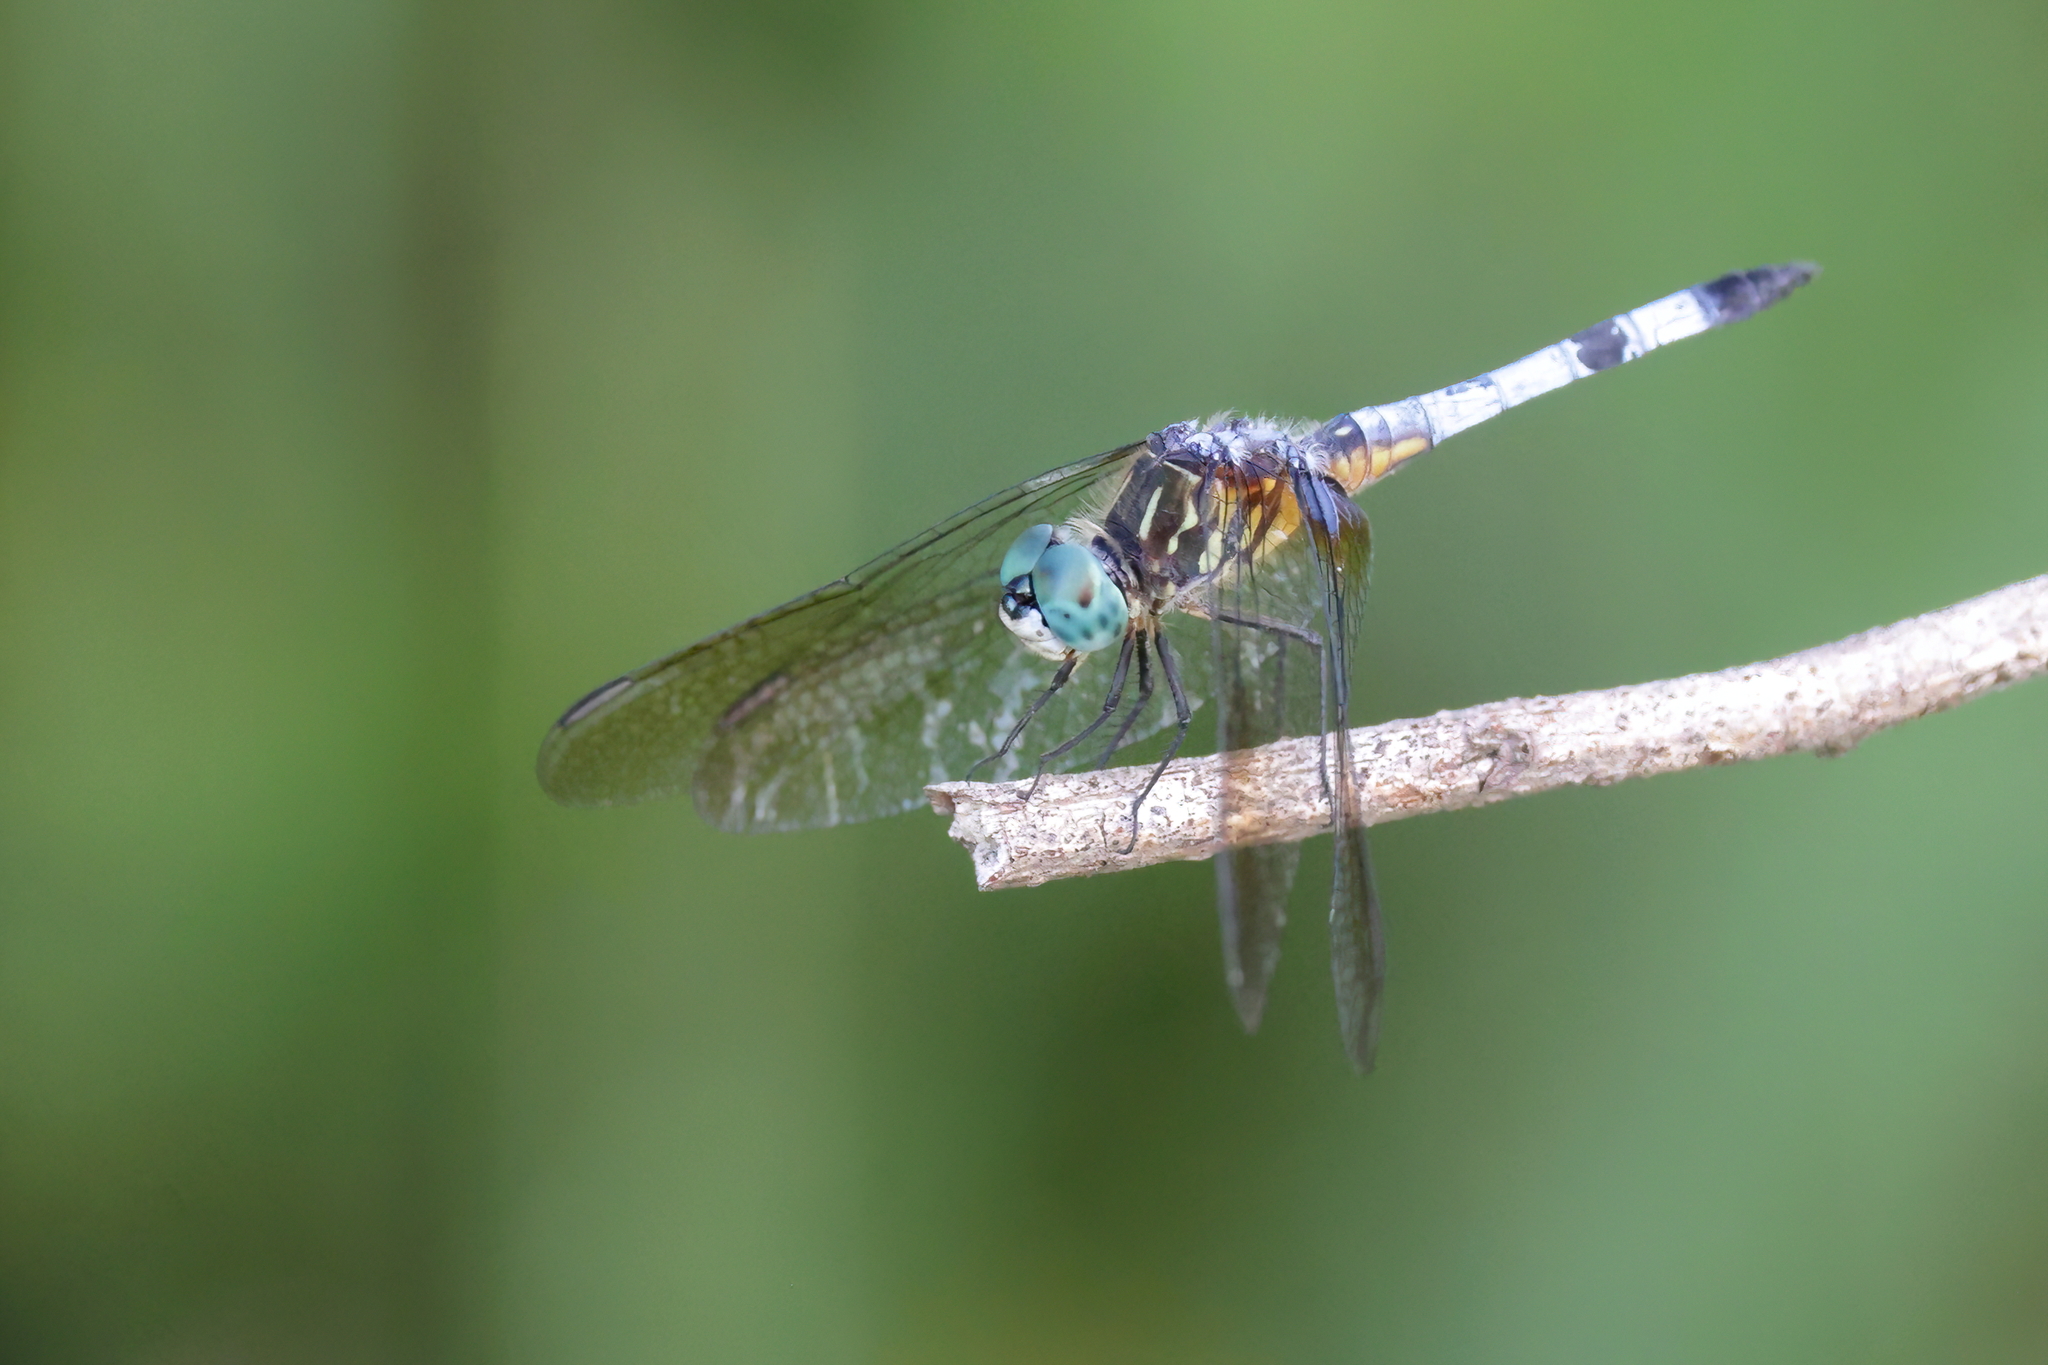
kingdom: Animalia
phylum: Arthropoda
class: Insecta
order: Odonata
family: Libellulidae
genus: Pachydiplax
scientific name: Pachydiplax longipennis
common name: Blue dasher
